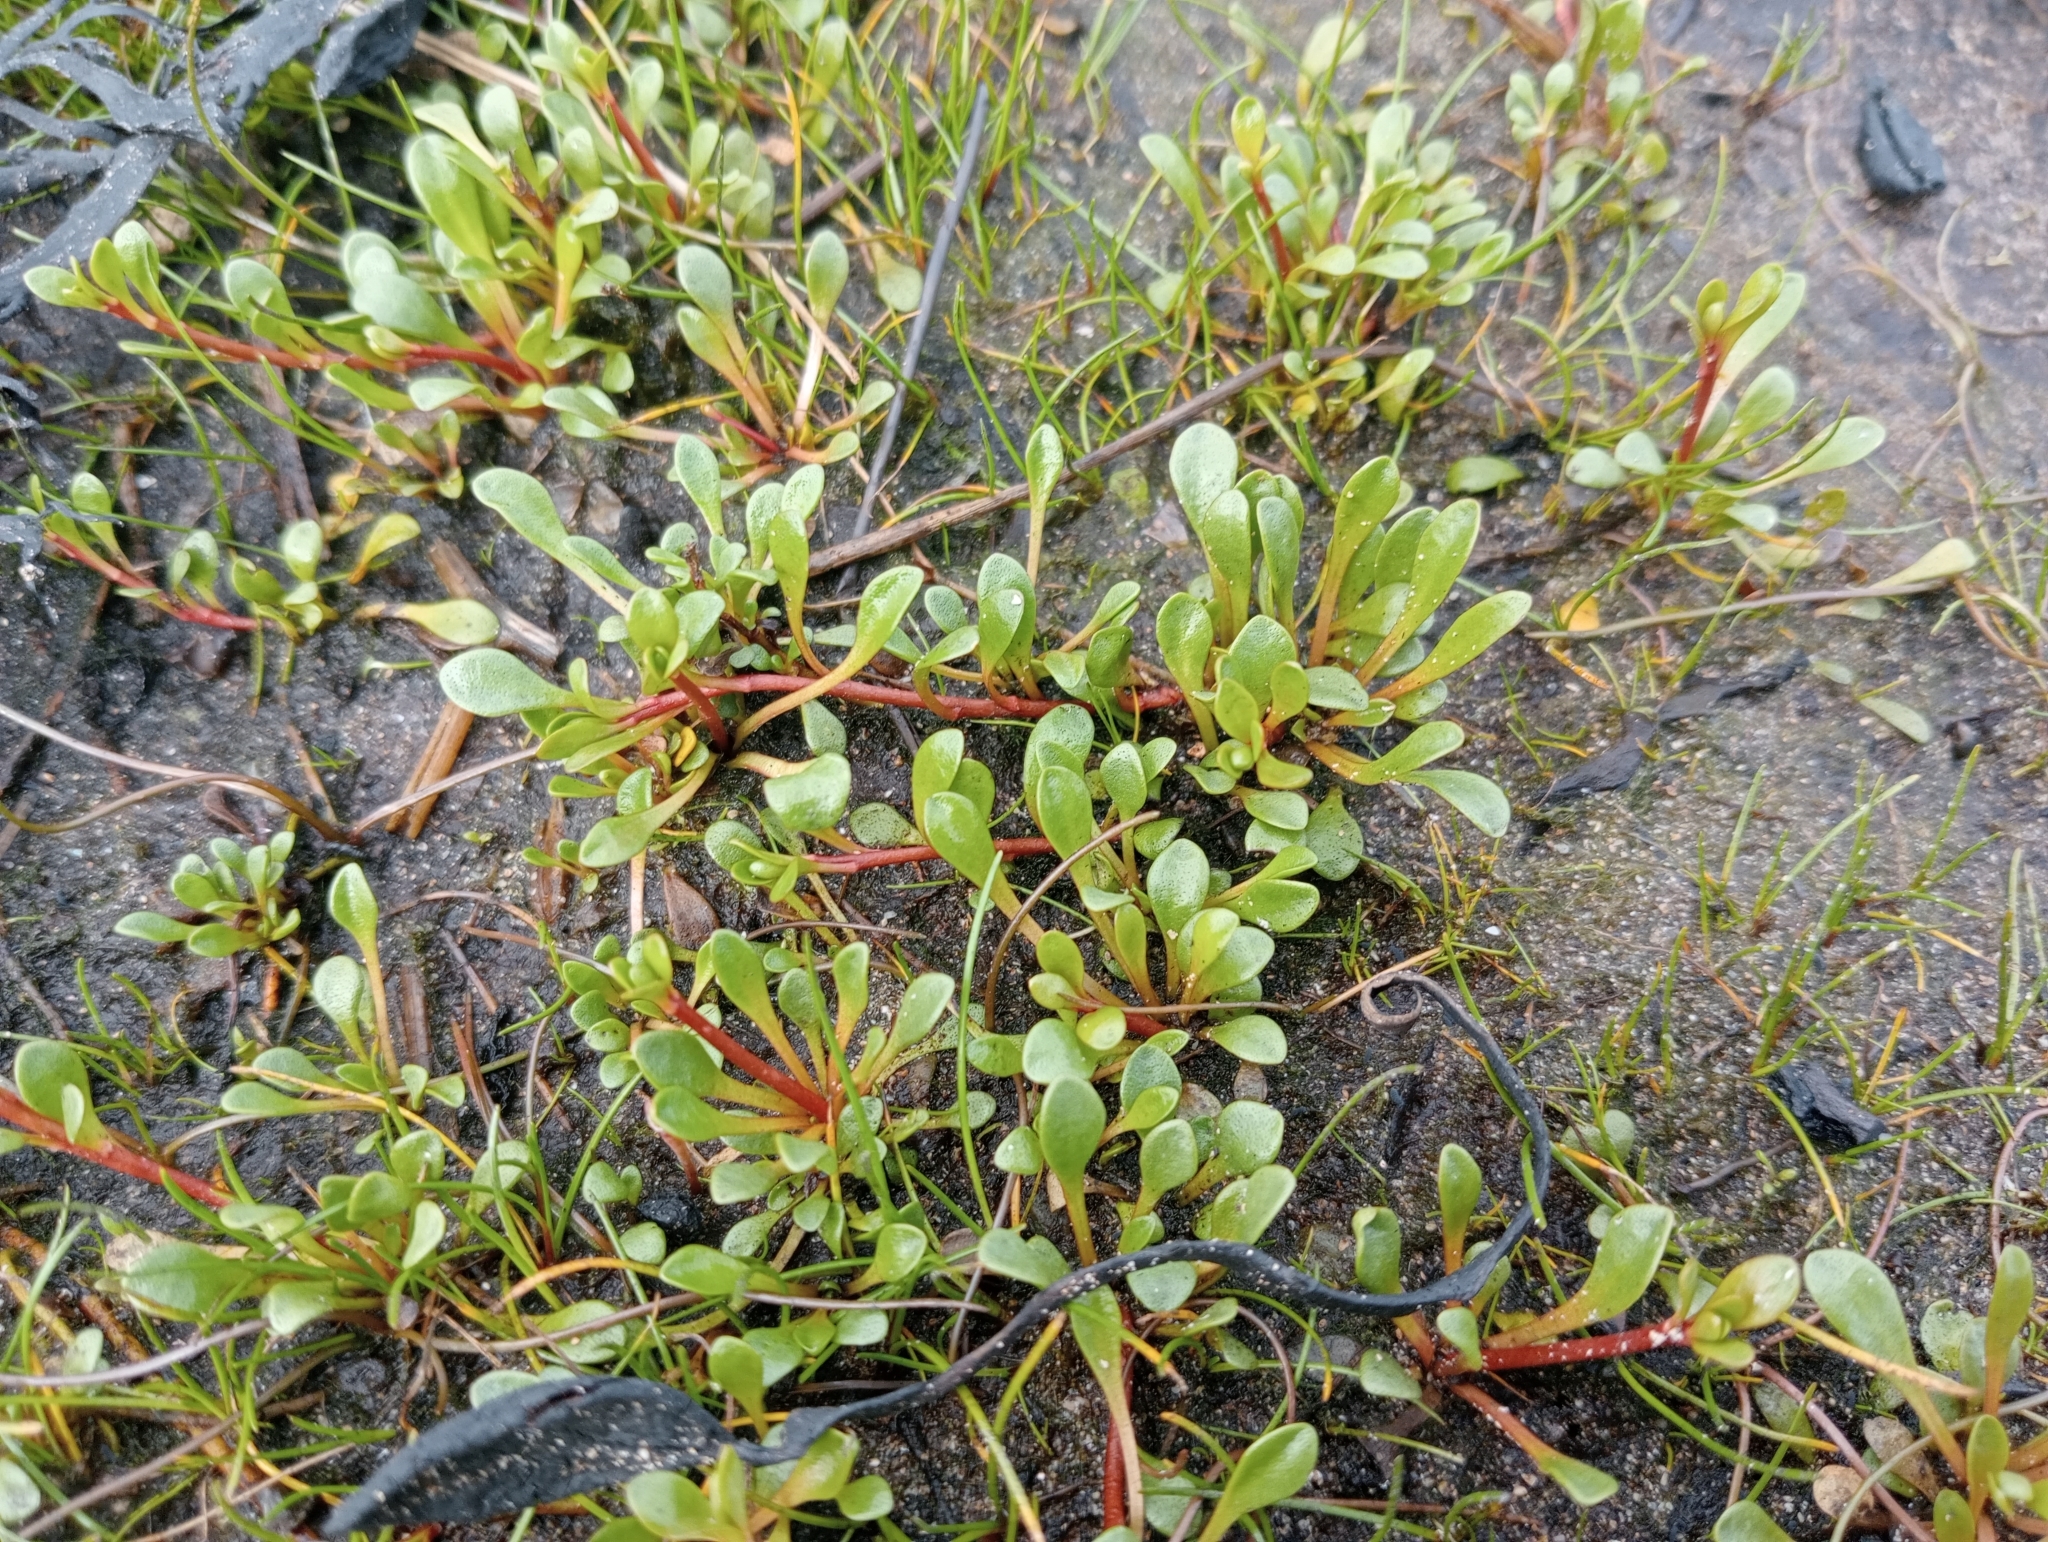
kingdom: Plantae
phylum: Tracheophyta
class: Magnoliopsida
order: Ericales
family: Primulaceae
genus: Samolus
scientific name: Samolus repens
